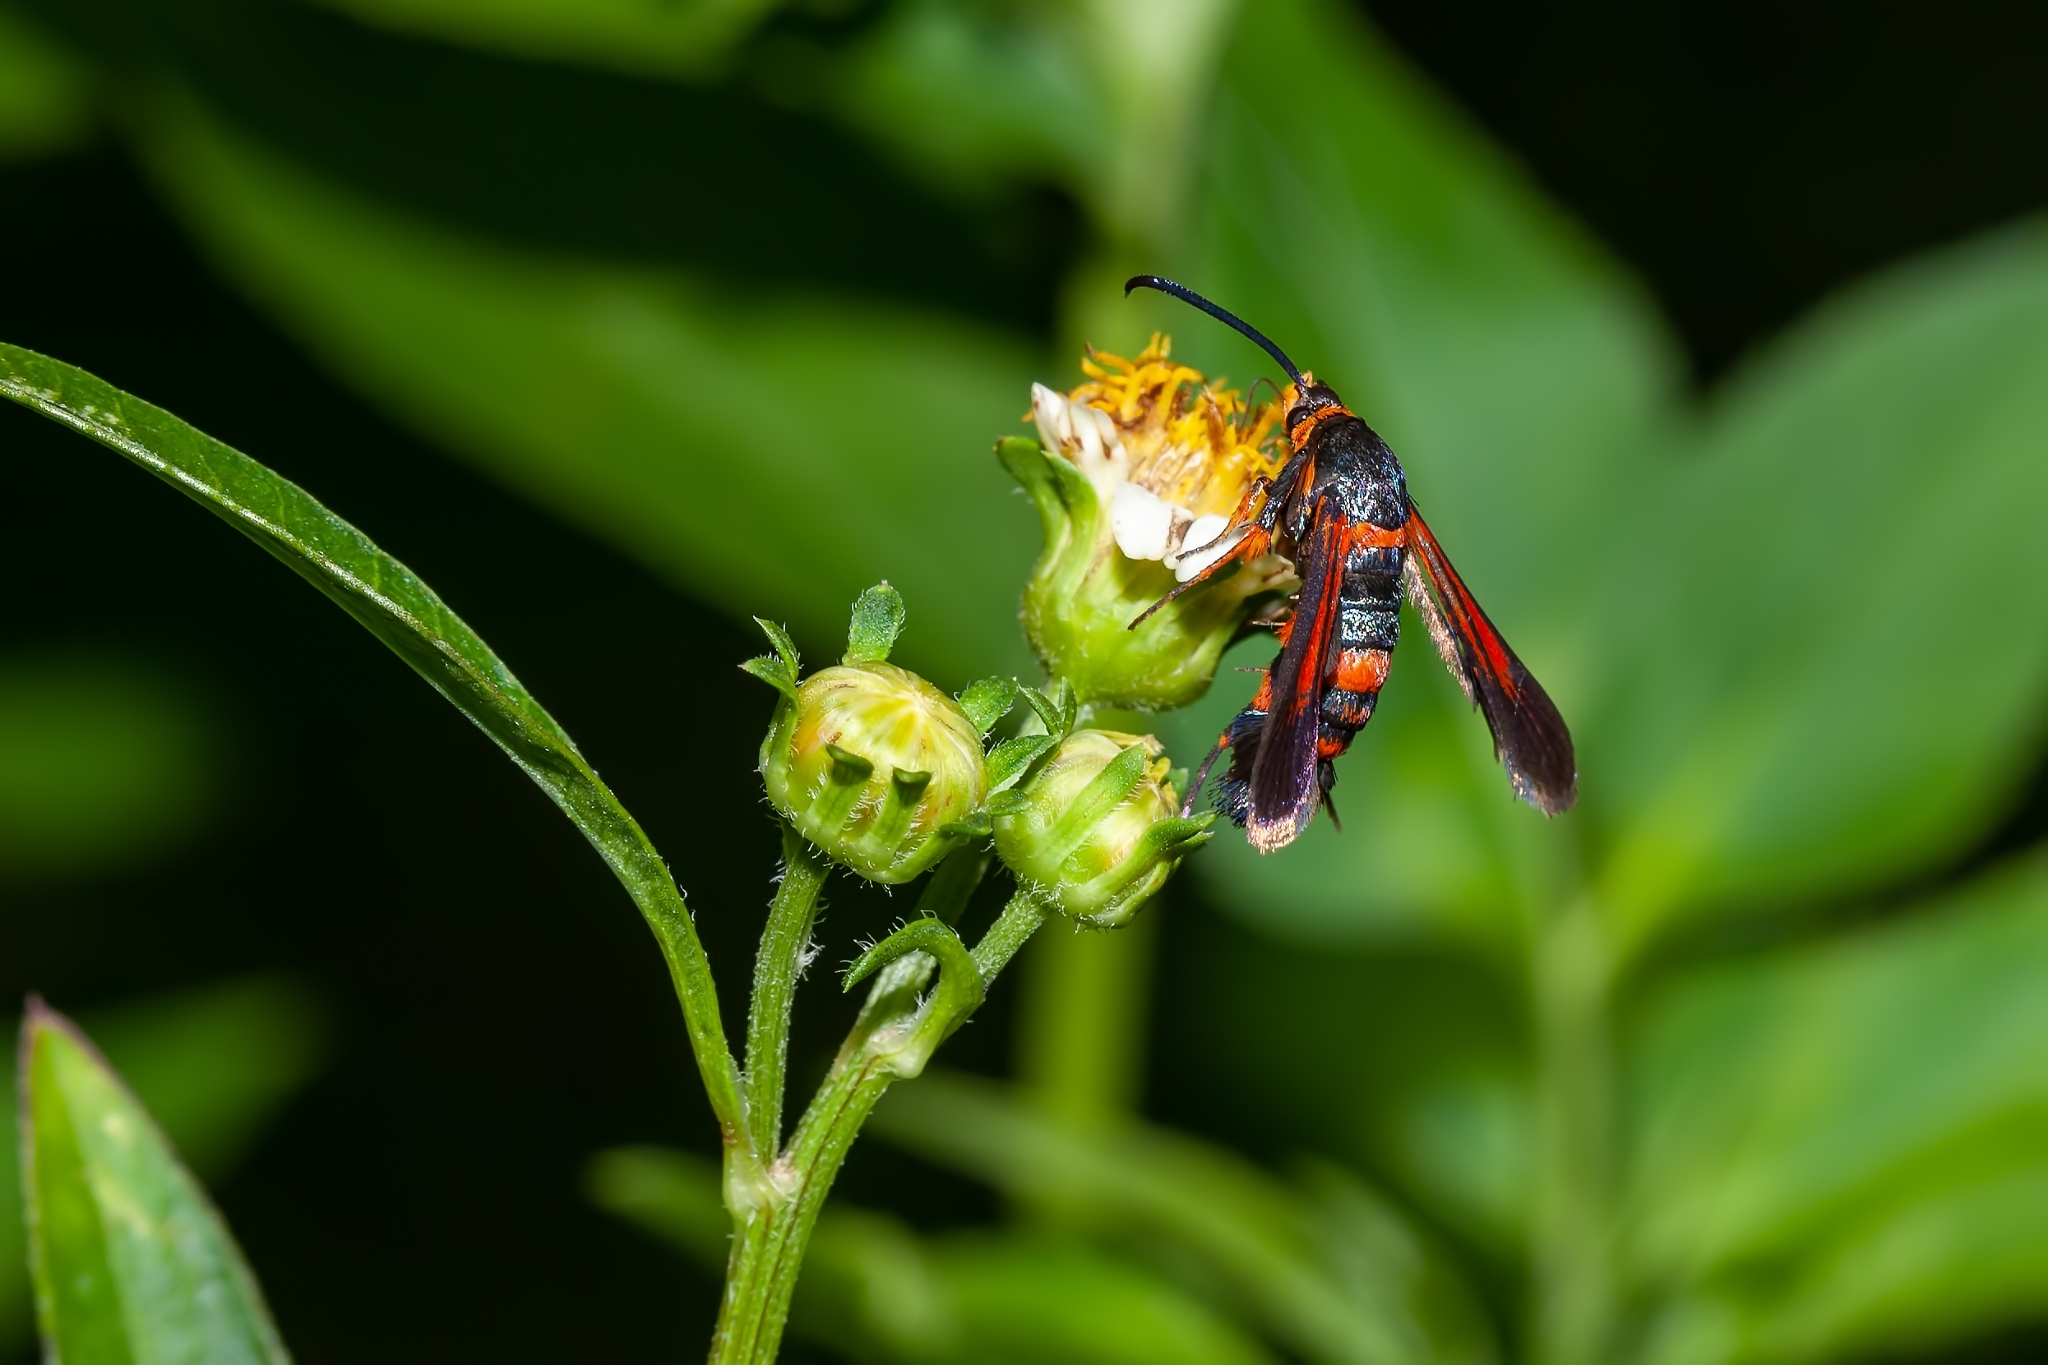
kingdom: Animalia
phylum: Arthropoda
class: Insecta
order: Lepidoptera
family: Sesiidae
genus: Synanthedon
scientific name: Synanthedon sapygaeformis
